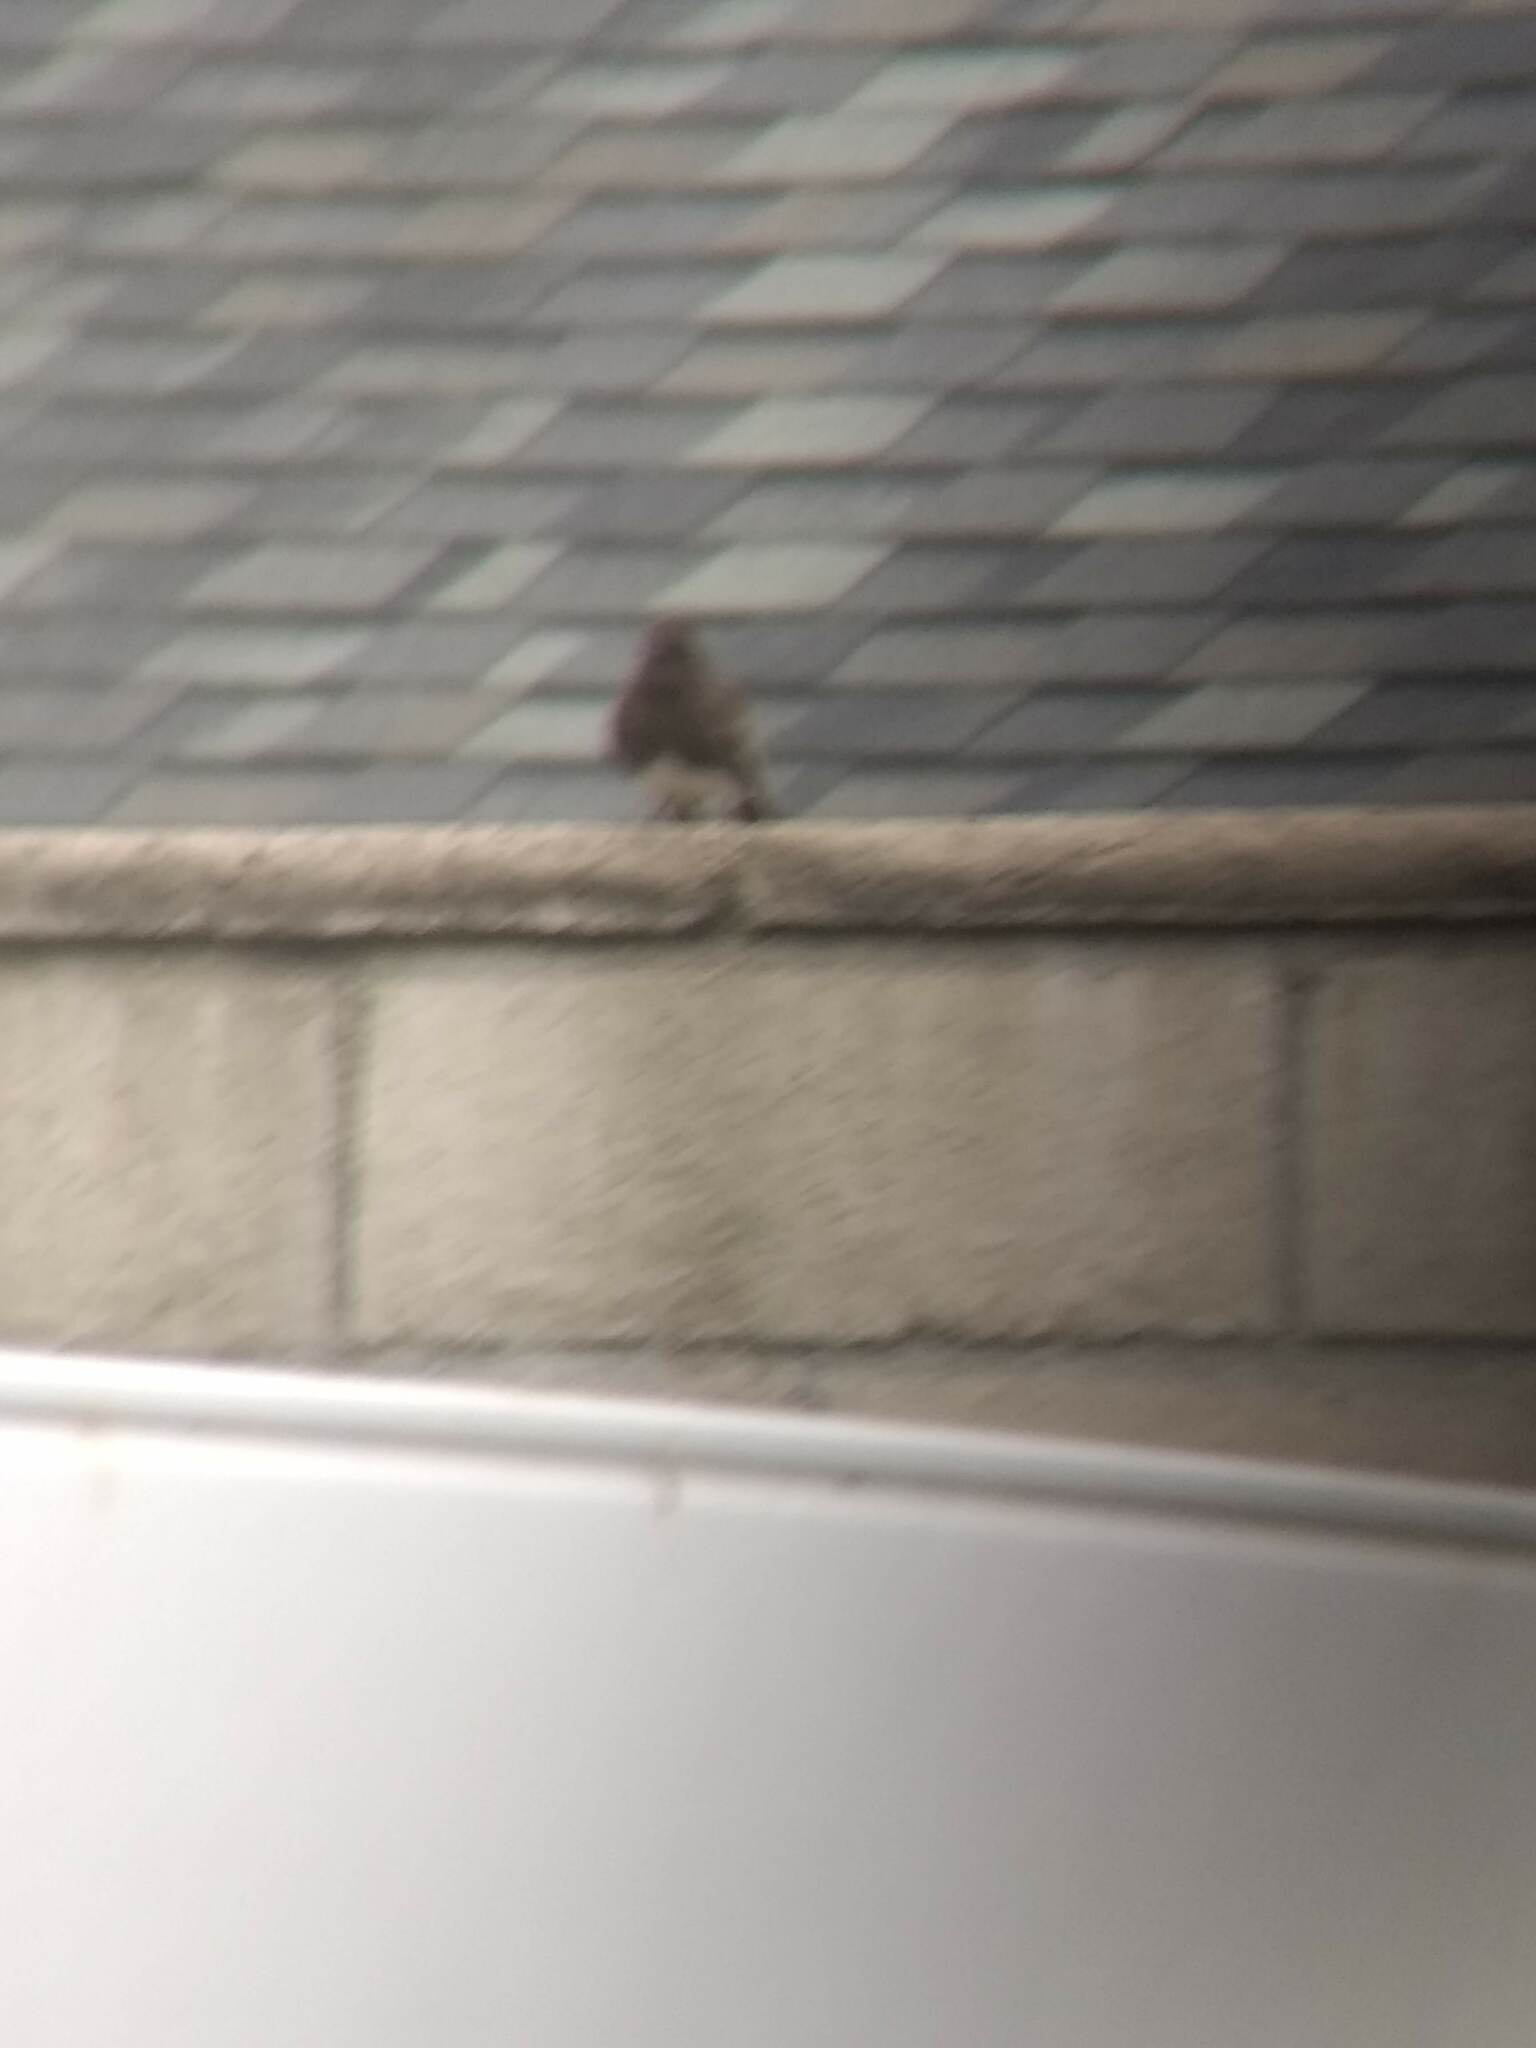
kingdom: Animalia
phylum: Chordata
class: Aves
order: Passeriformes
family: Tyrannidae
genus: Sayornis
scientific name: Sayornis nigricans
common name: Black phoebe
